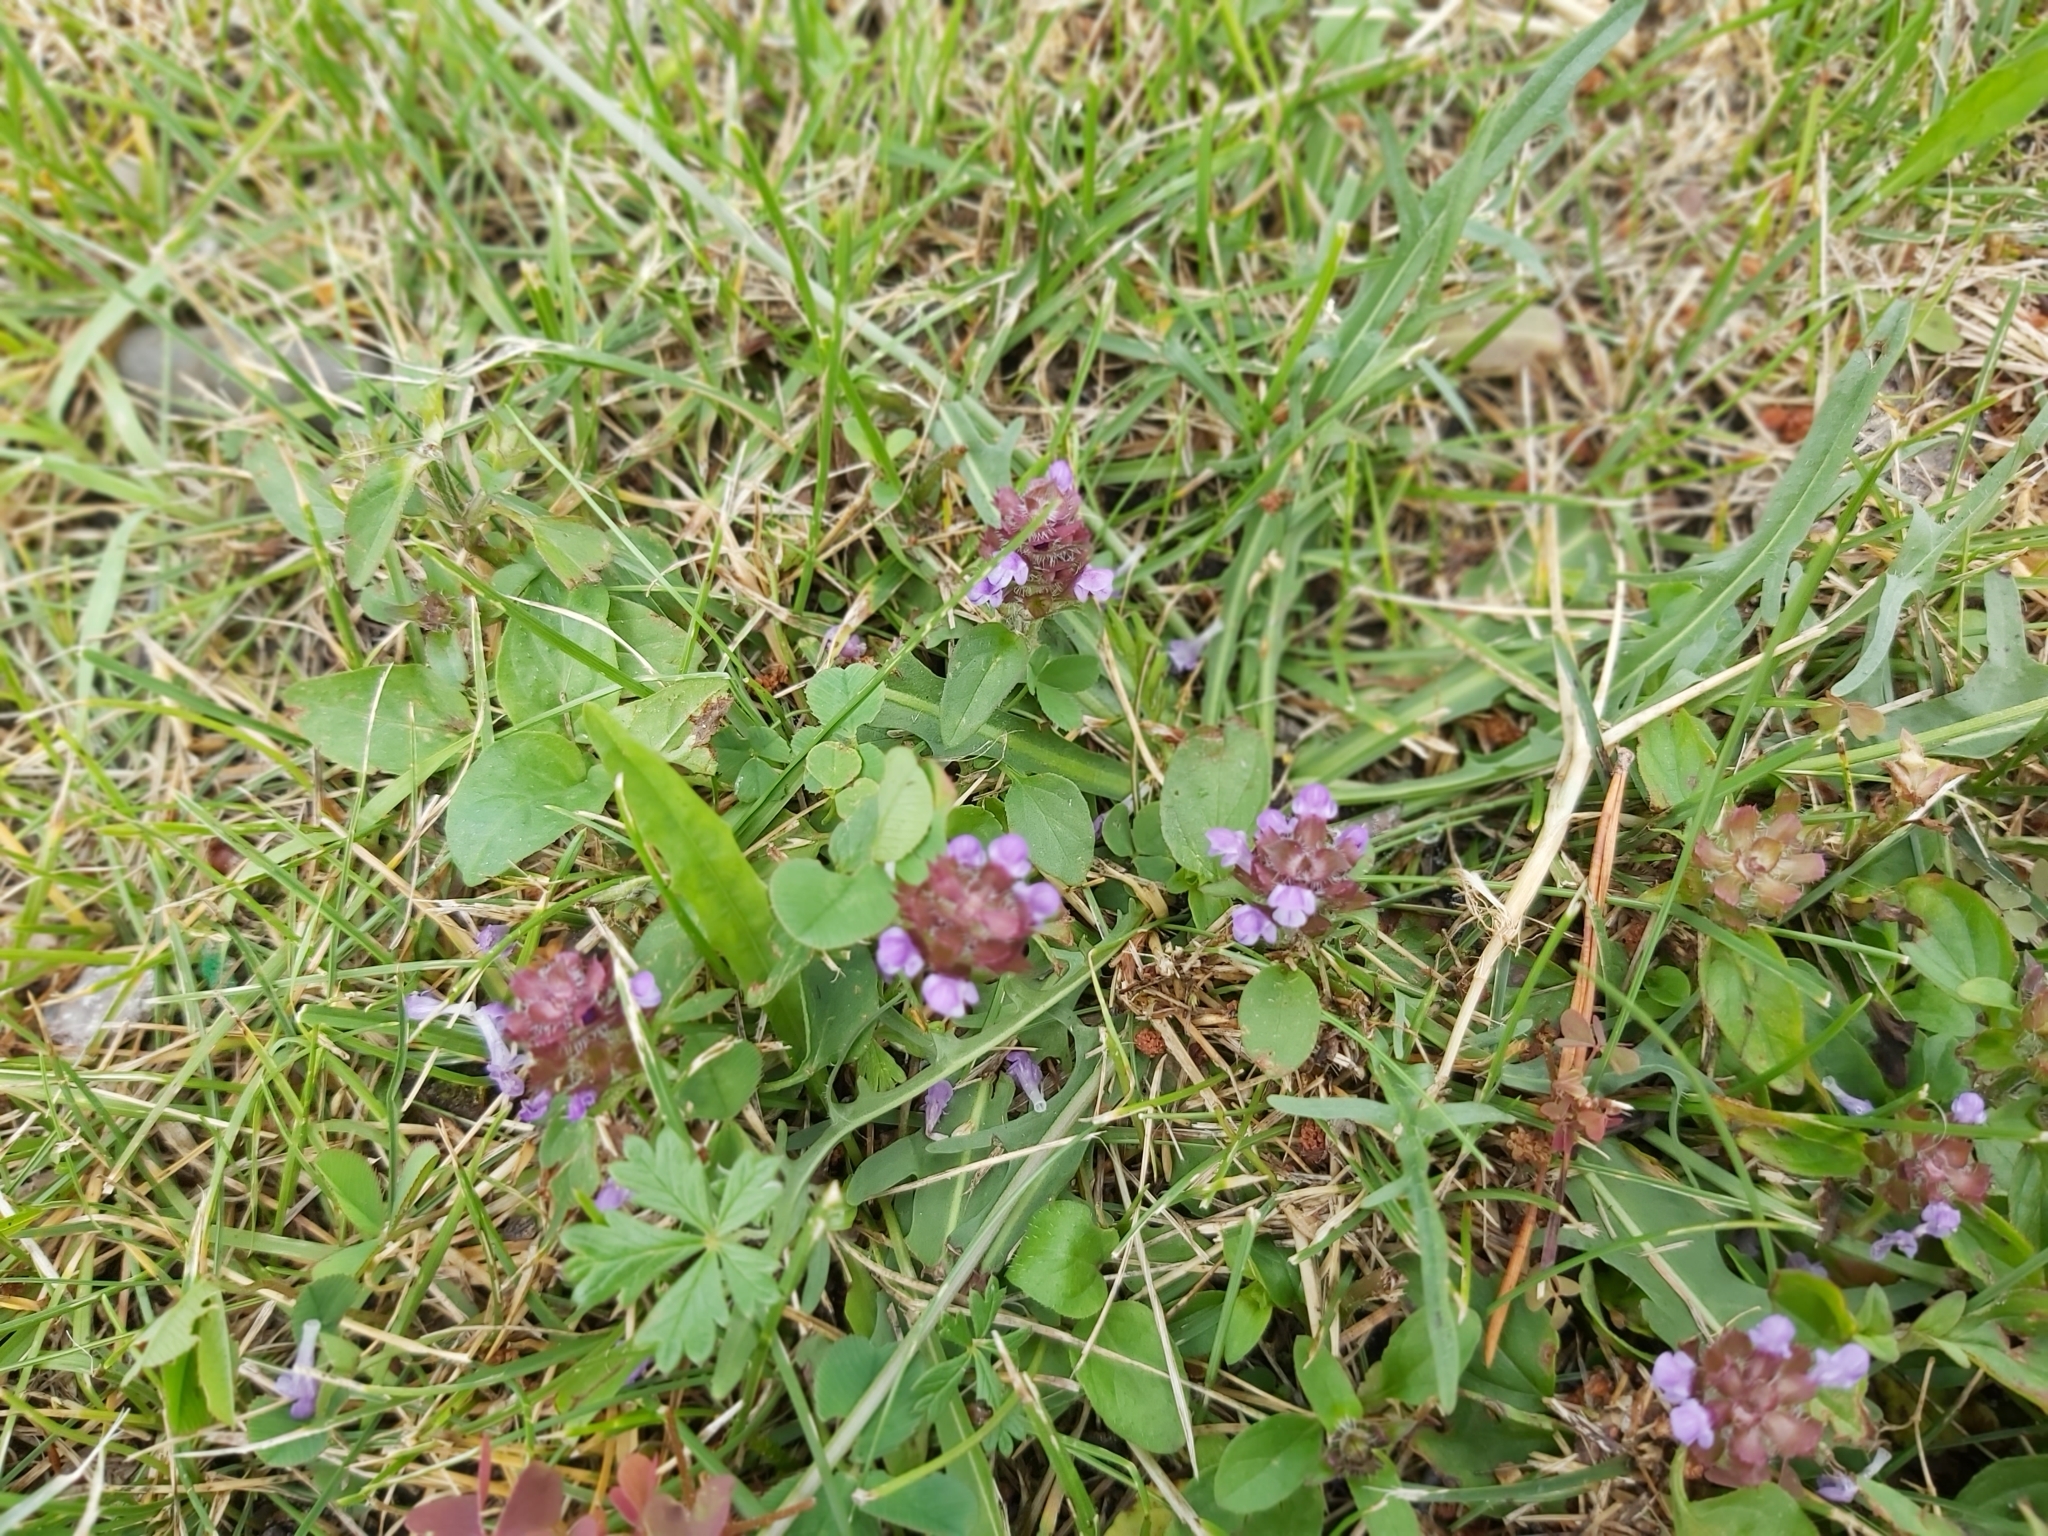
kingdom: Plantae
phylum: Tracheophyta
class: Magnoliopsida
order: Lamiales
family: Lamiaceae
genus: Prunella
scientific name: Prunella vulgaris
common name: Heal-all
